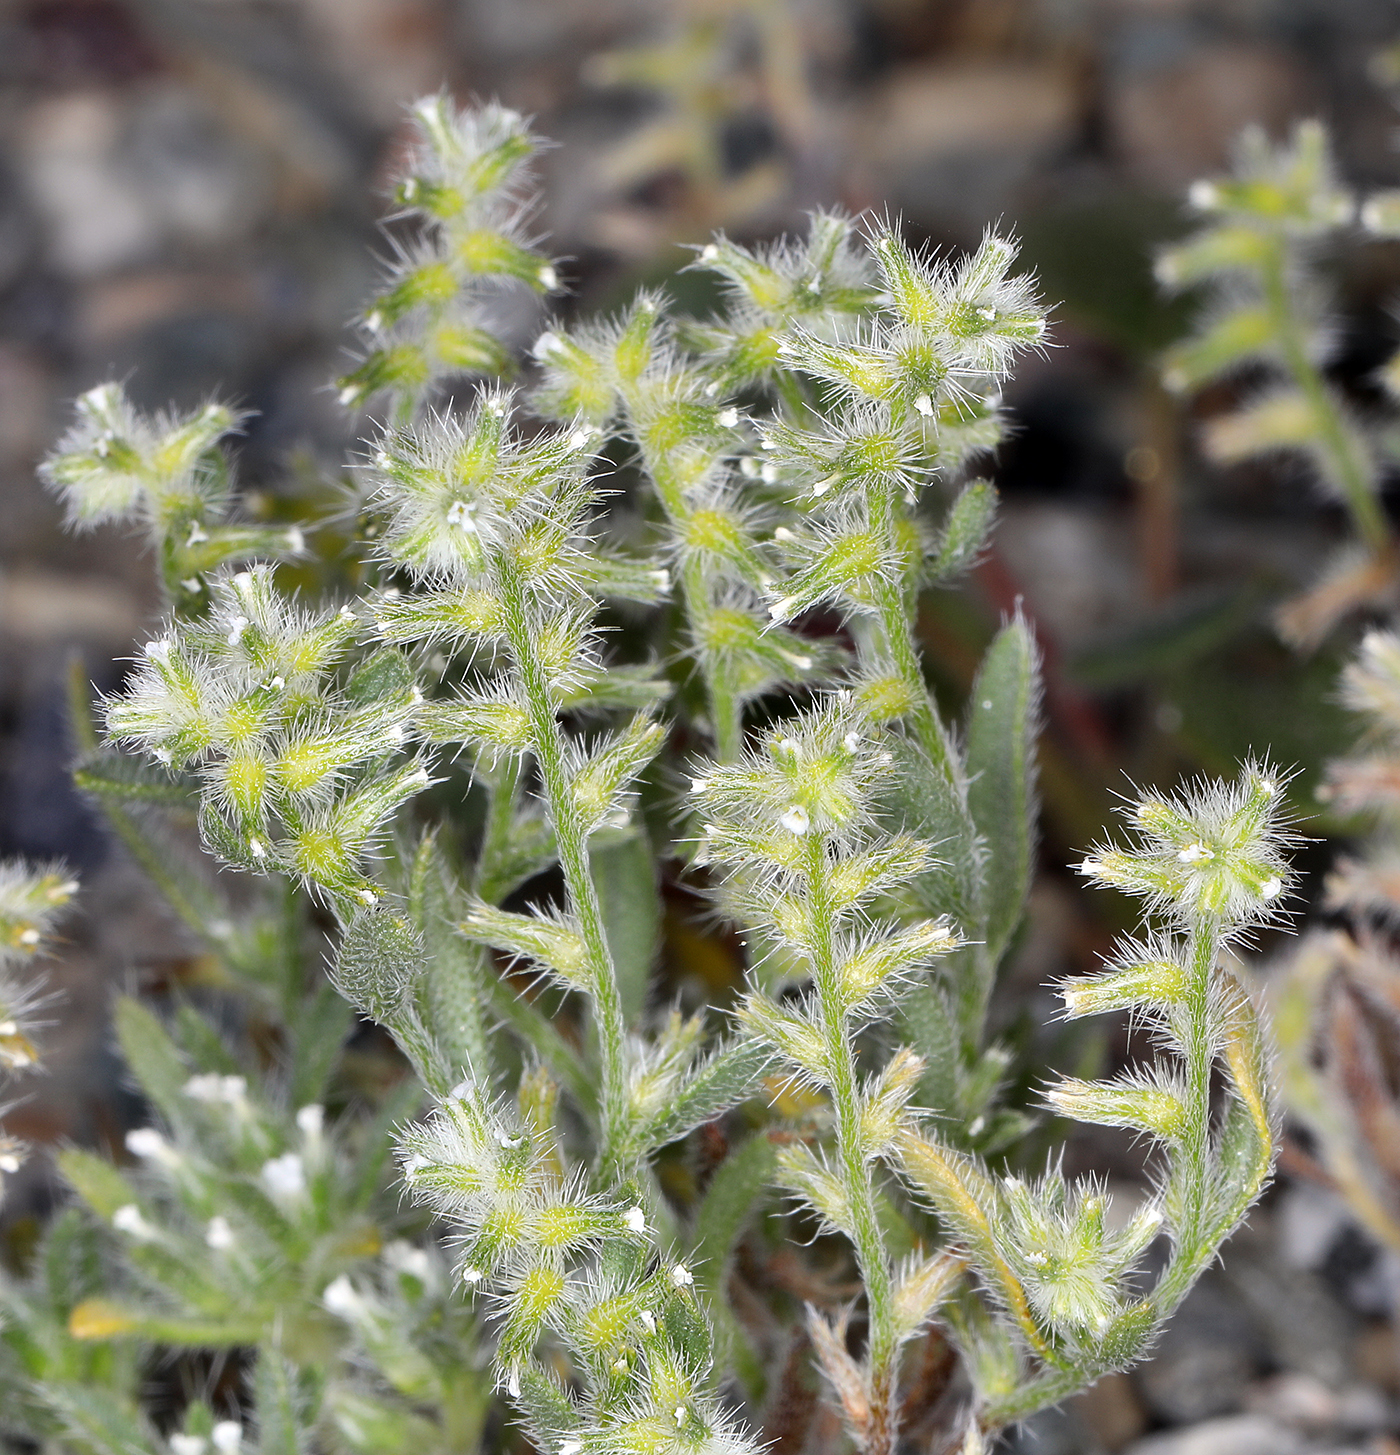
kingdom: Plantae
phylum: Tracheophyta
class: Magnoliopsida
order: Boraginales
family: Boraginaceae
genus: Cryptantha
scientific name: Cryptantha recurvata
